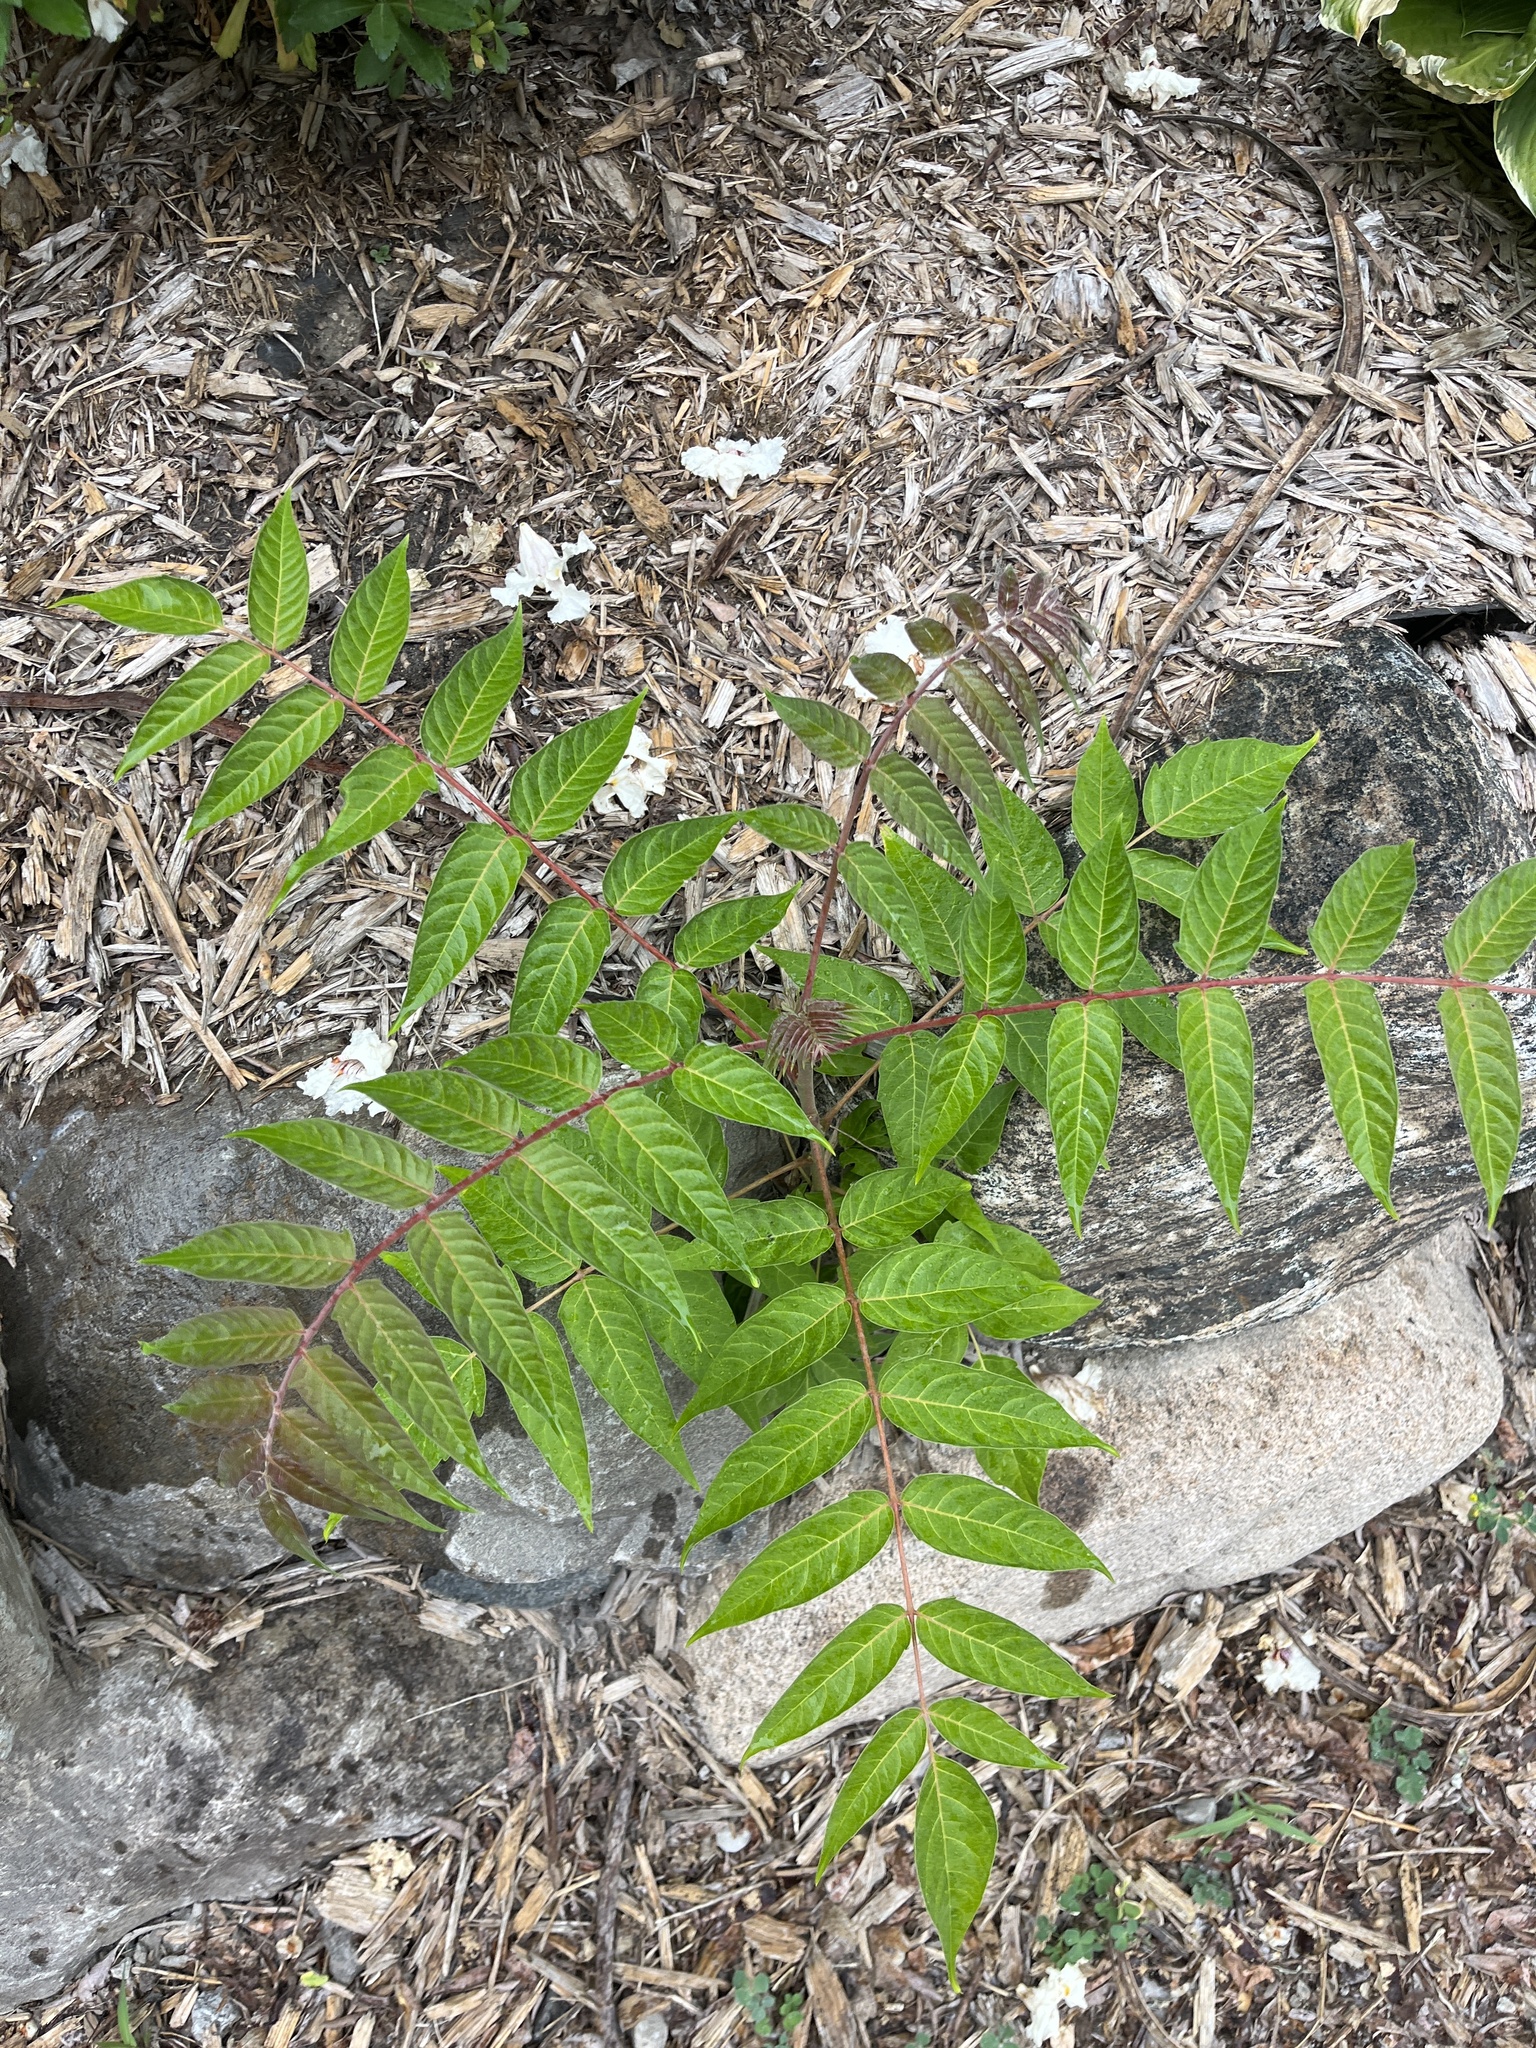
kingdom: Plantae
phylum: Tracheophyta
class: Magnoliopsida
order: Sapindales
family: Simaroubaceae
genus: Ailanthus
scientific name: Ailanthus altissima
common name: Tree-of-heaven
